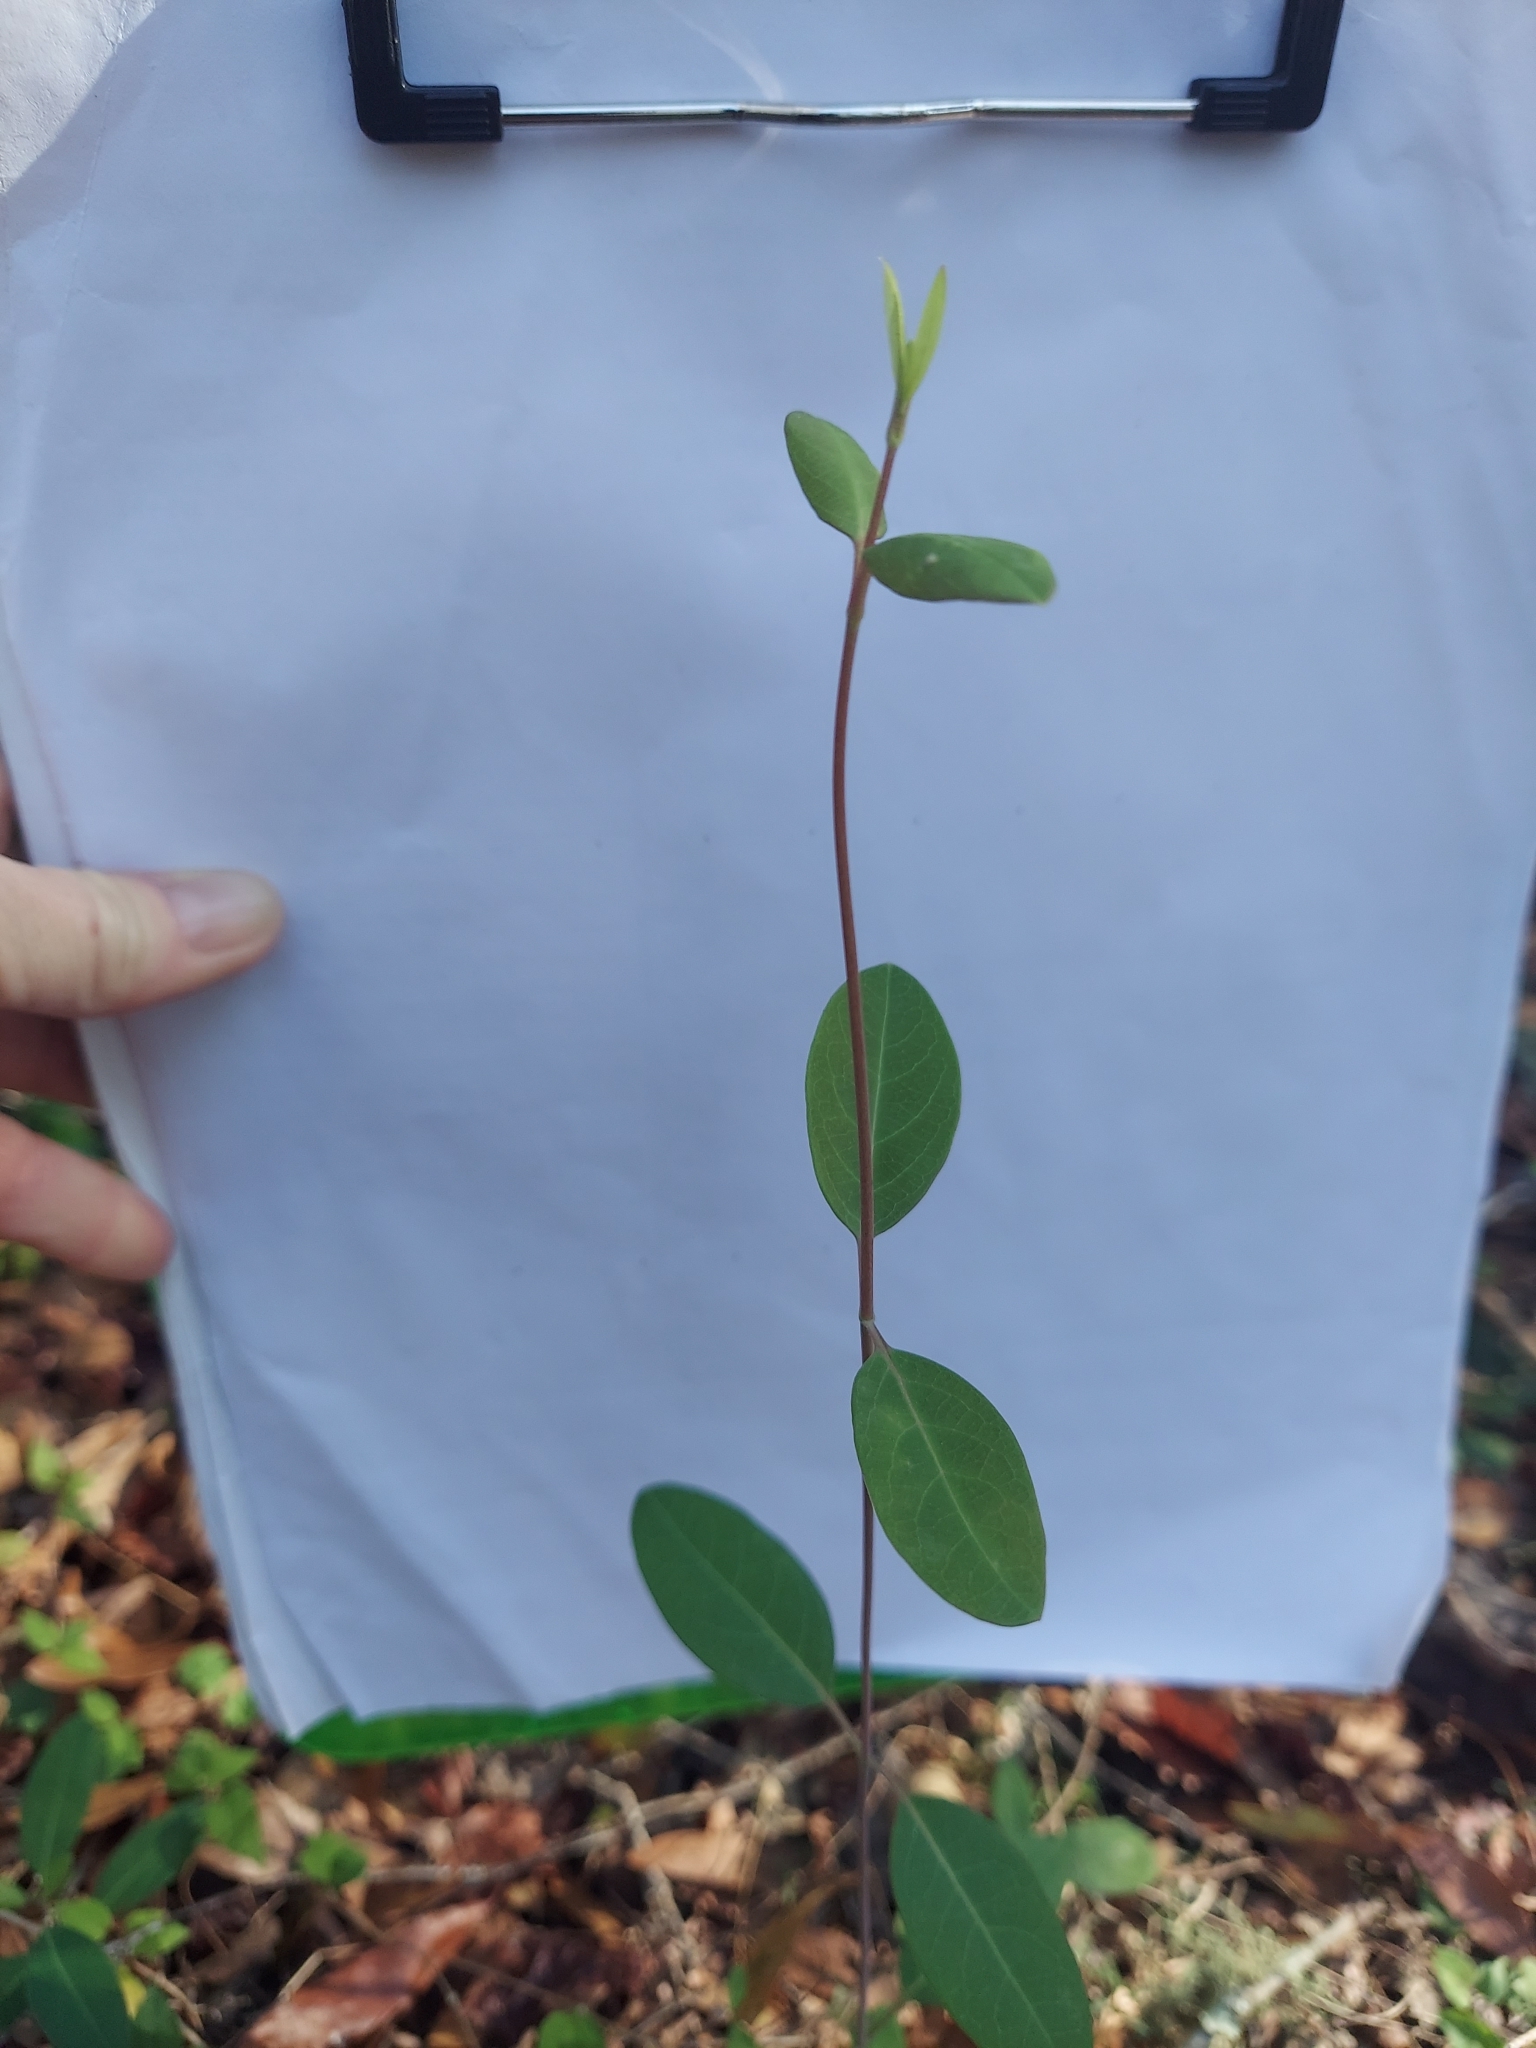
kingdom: Plantae
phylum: Tracheophyta
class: Magnoliopsida
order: Dipsacales
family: Caprifoliaceae
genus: Lonicera
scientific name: Lonicera sempervirens
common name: Coral honeysuckle
